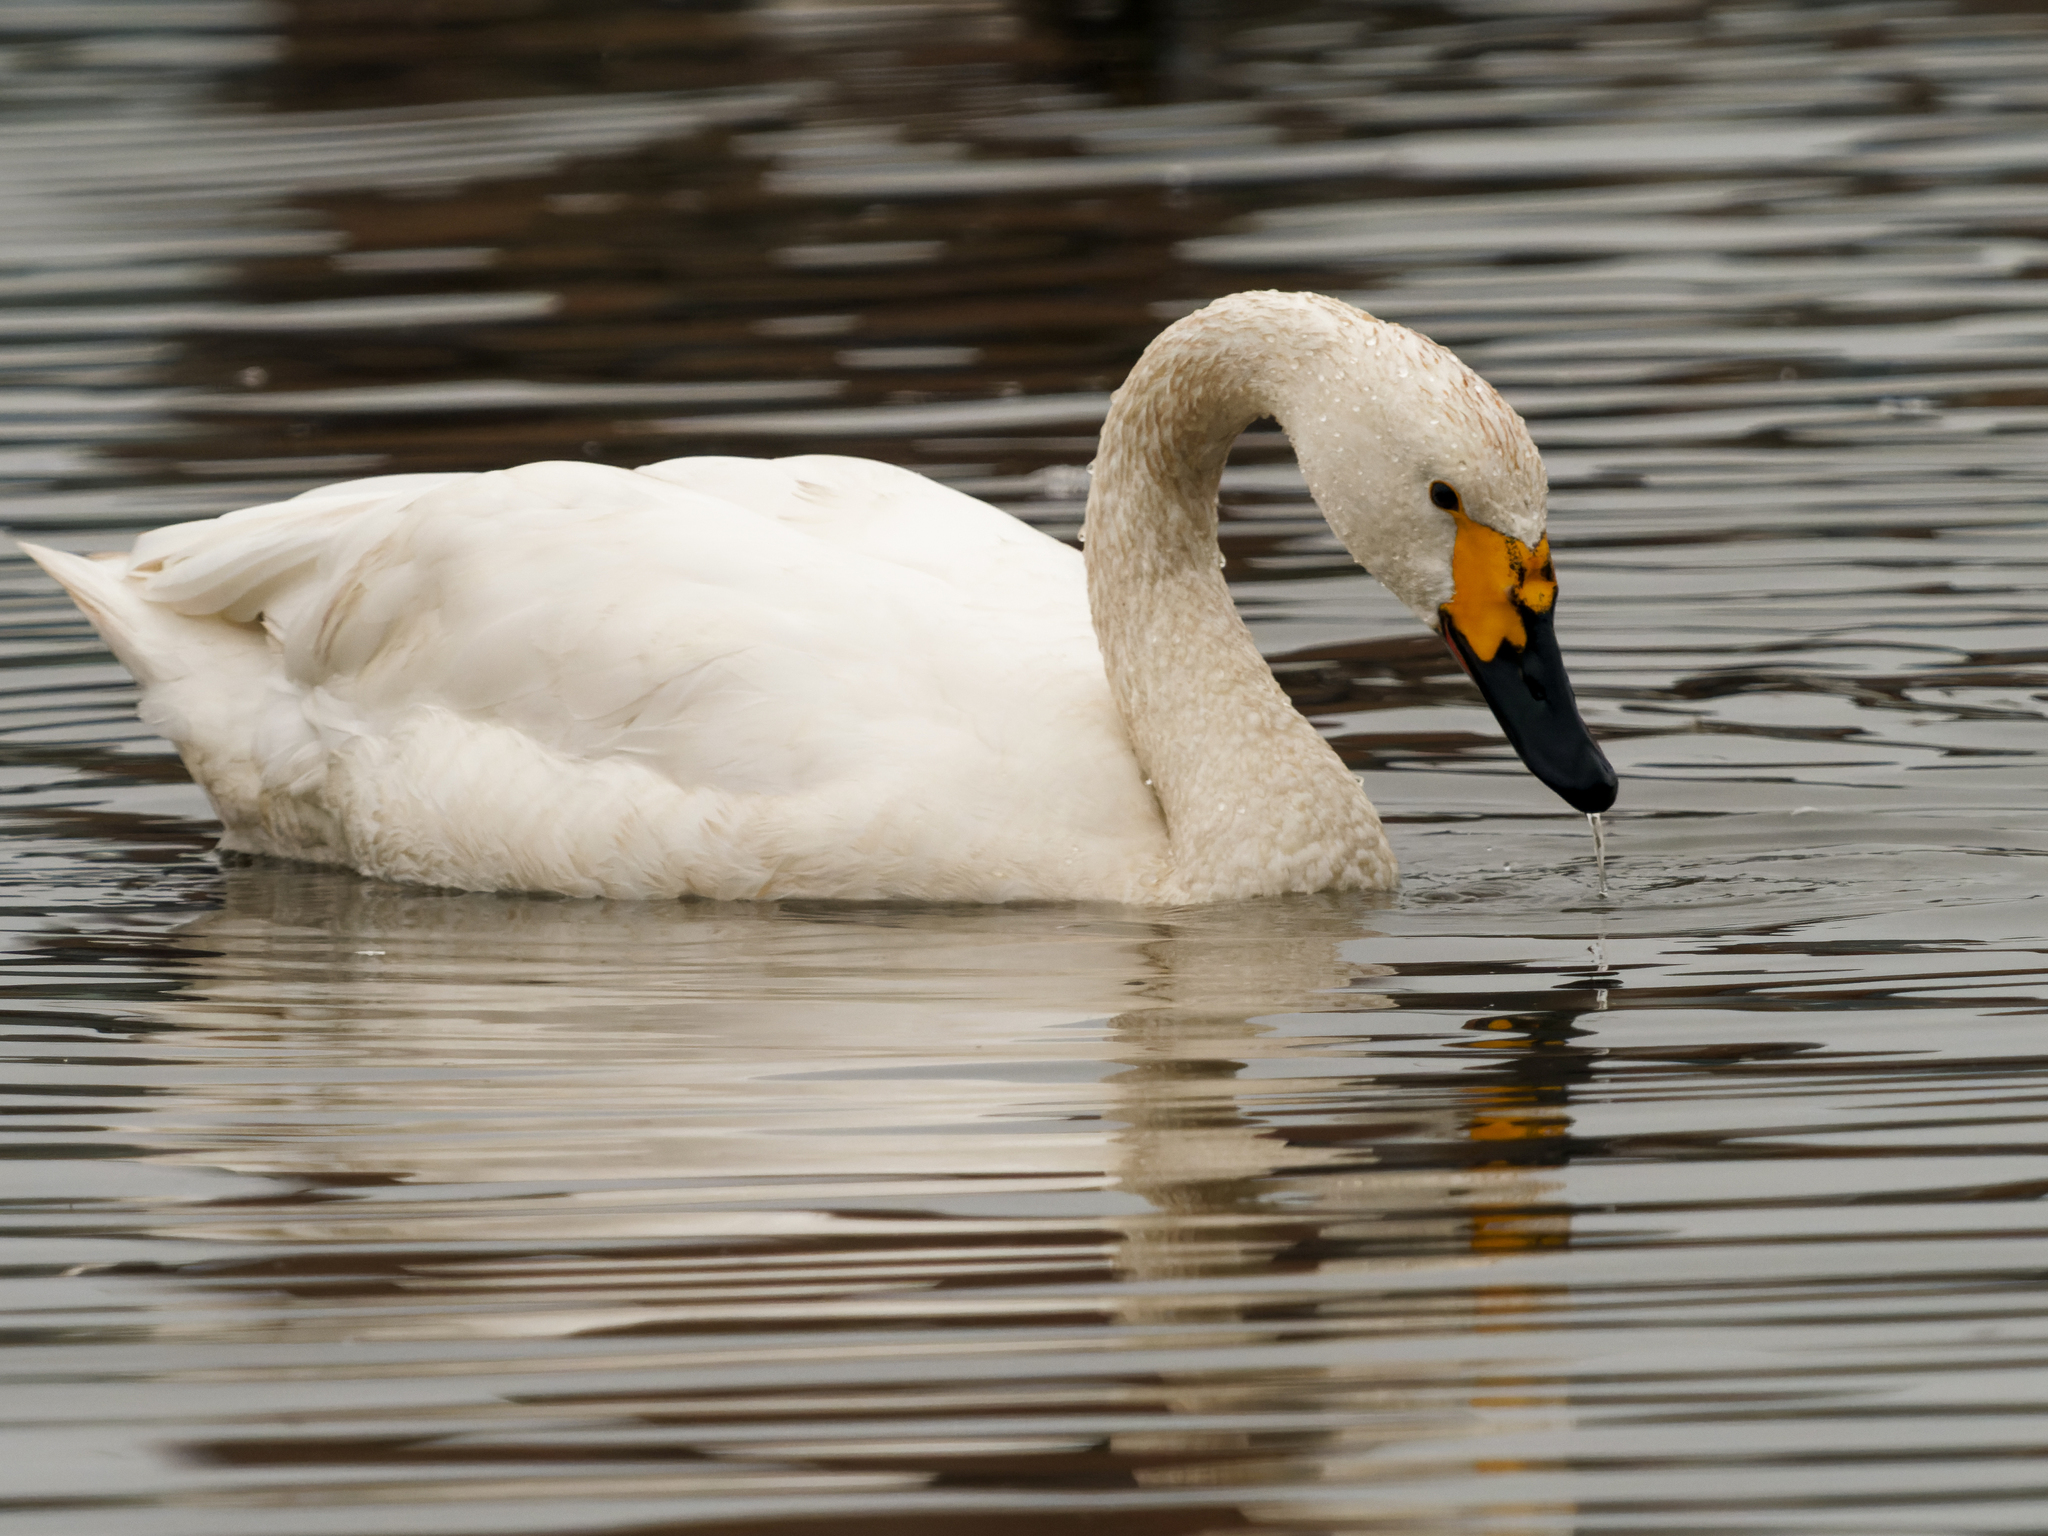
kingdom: Animalia
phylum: Chordata
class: Aves
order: Anseriformes
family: Anatidae
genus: Cygnus
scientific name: Cygnus columbianus
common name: Tundra swan
